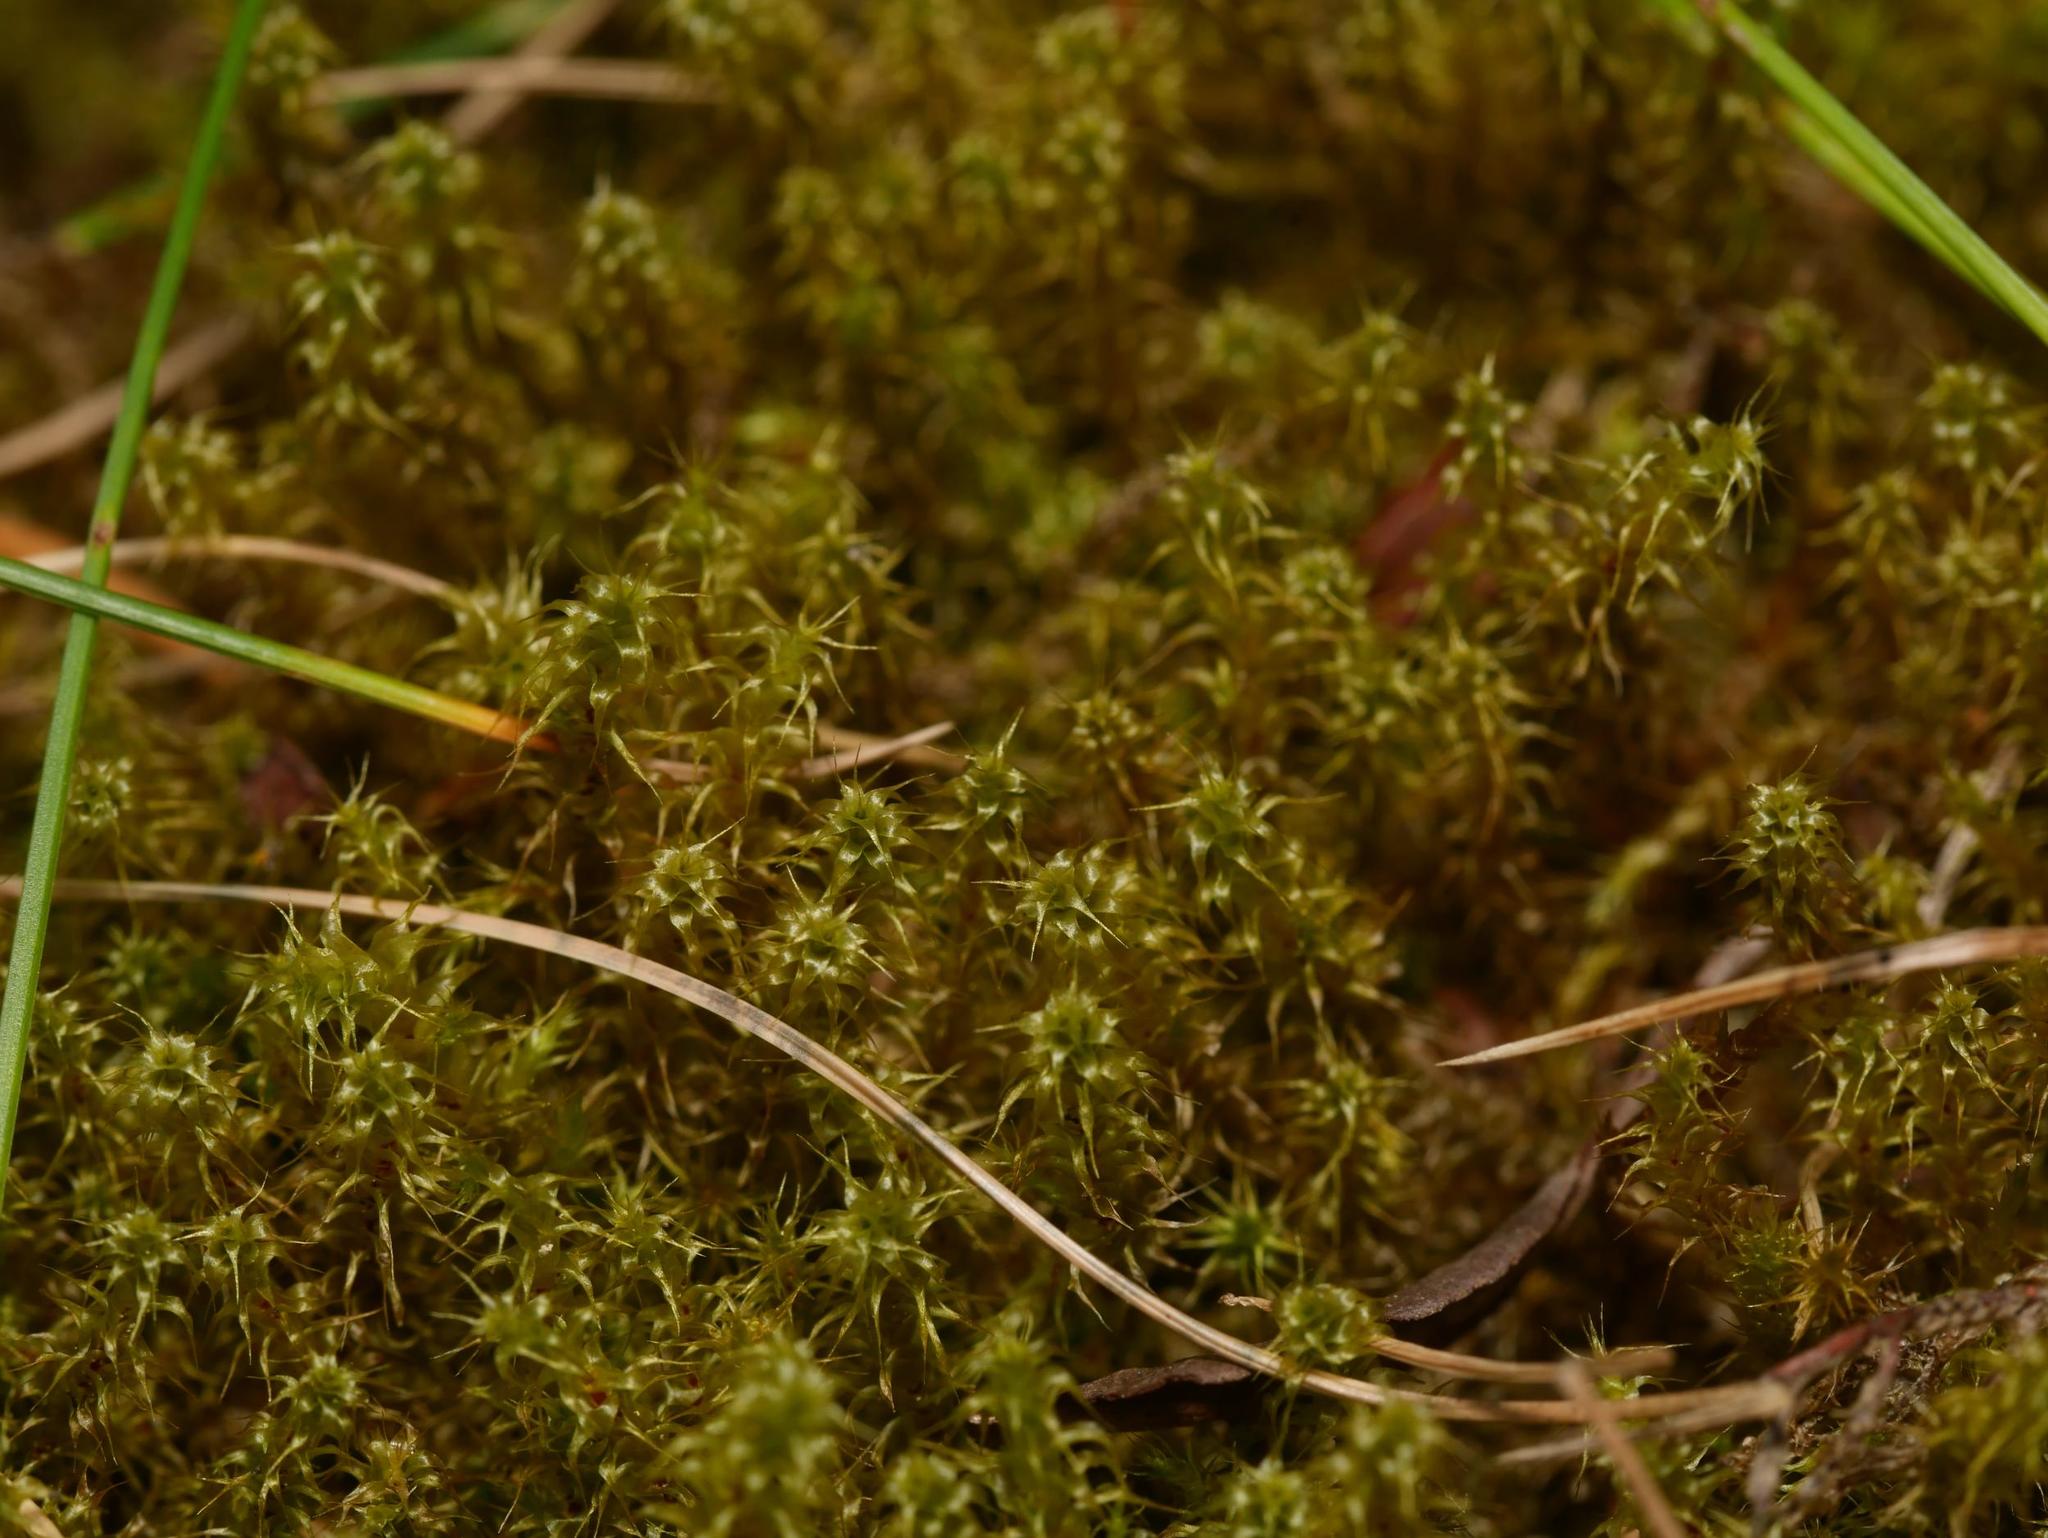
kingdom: Plantae
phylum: Bryophyta
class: Bryopsida
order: Hypnales
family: Hylocomiaceae
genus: Rhytidiadelphus
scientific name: Rhytidiadelphus squarrosus
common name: Springy turf-moss
